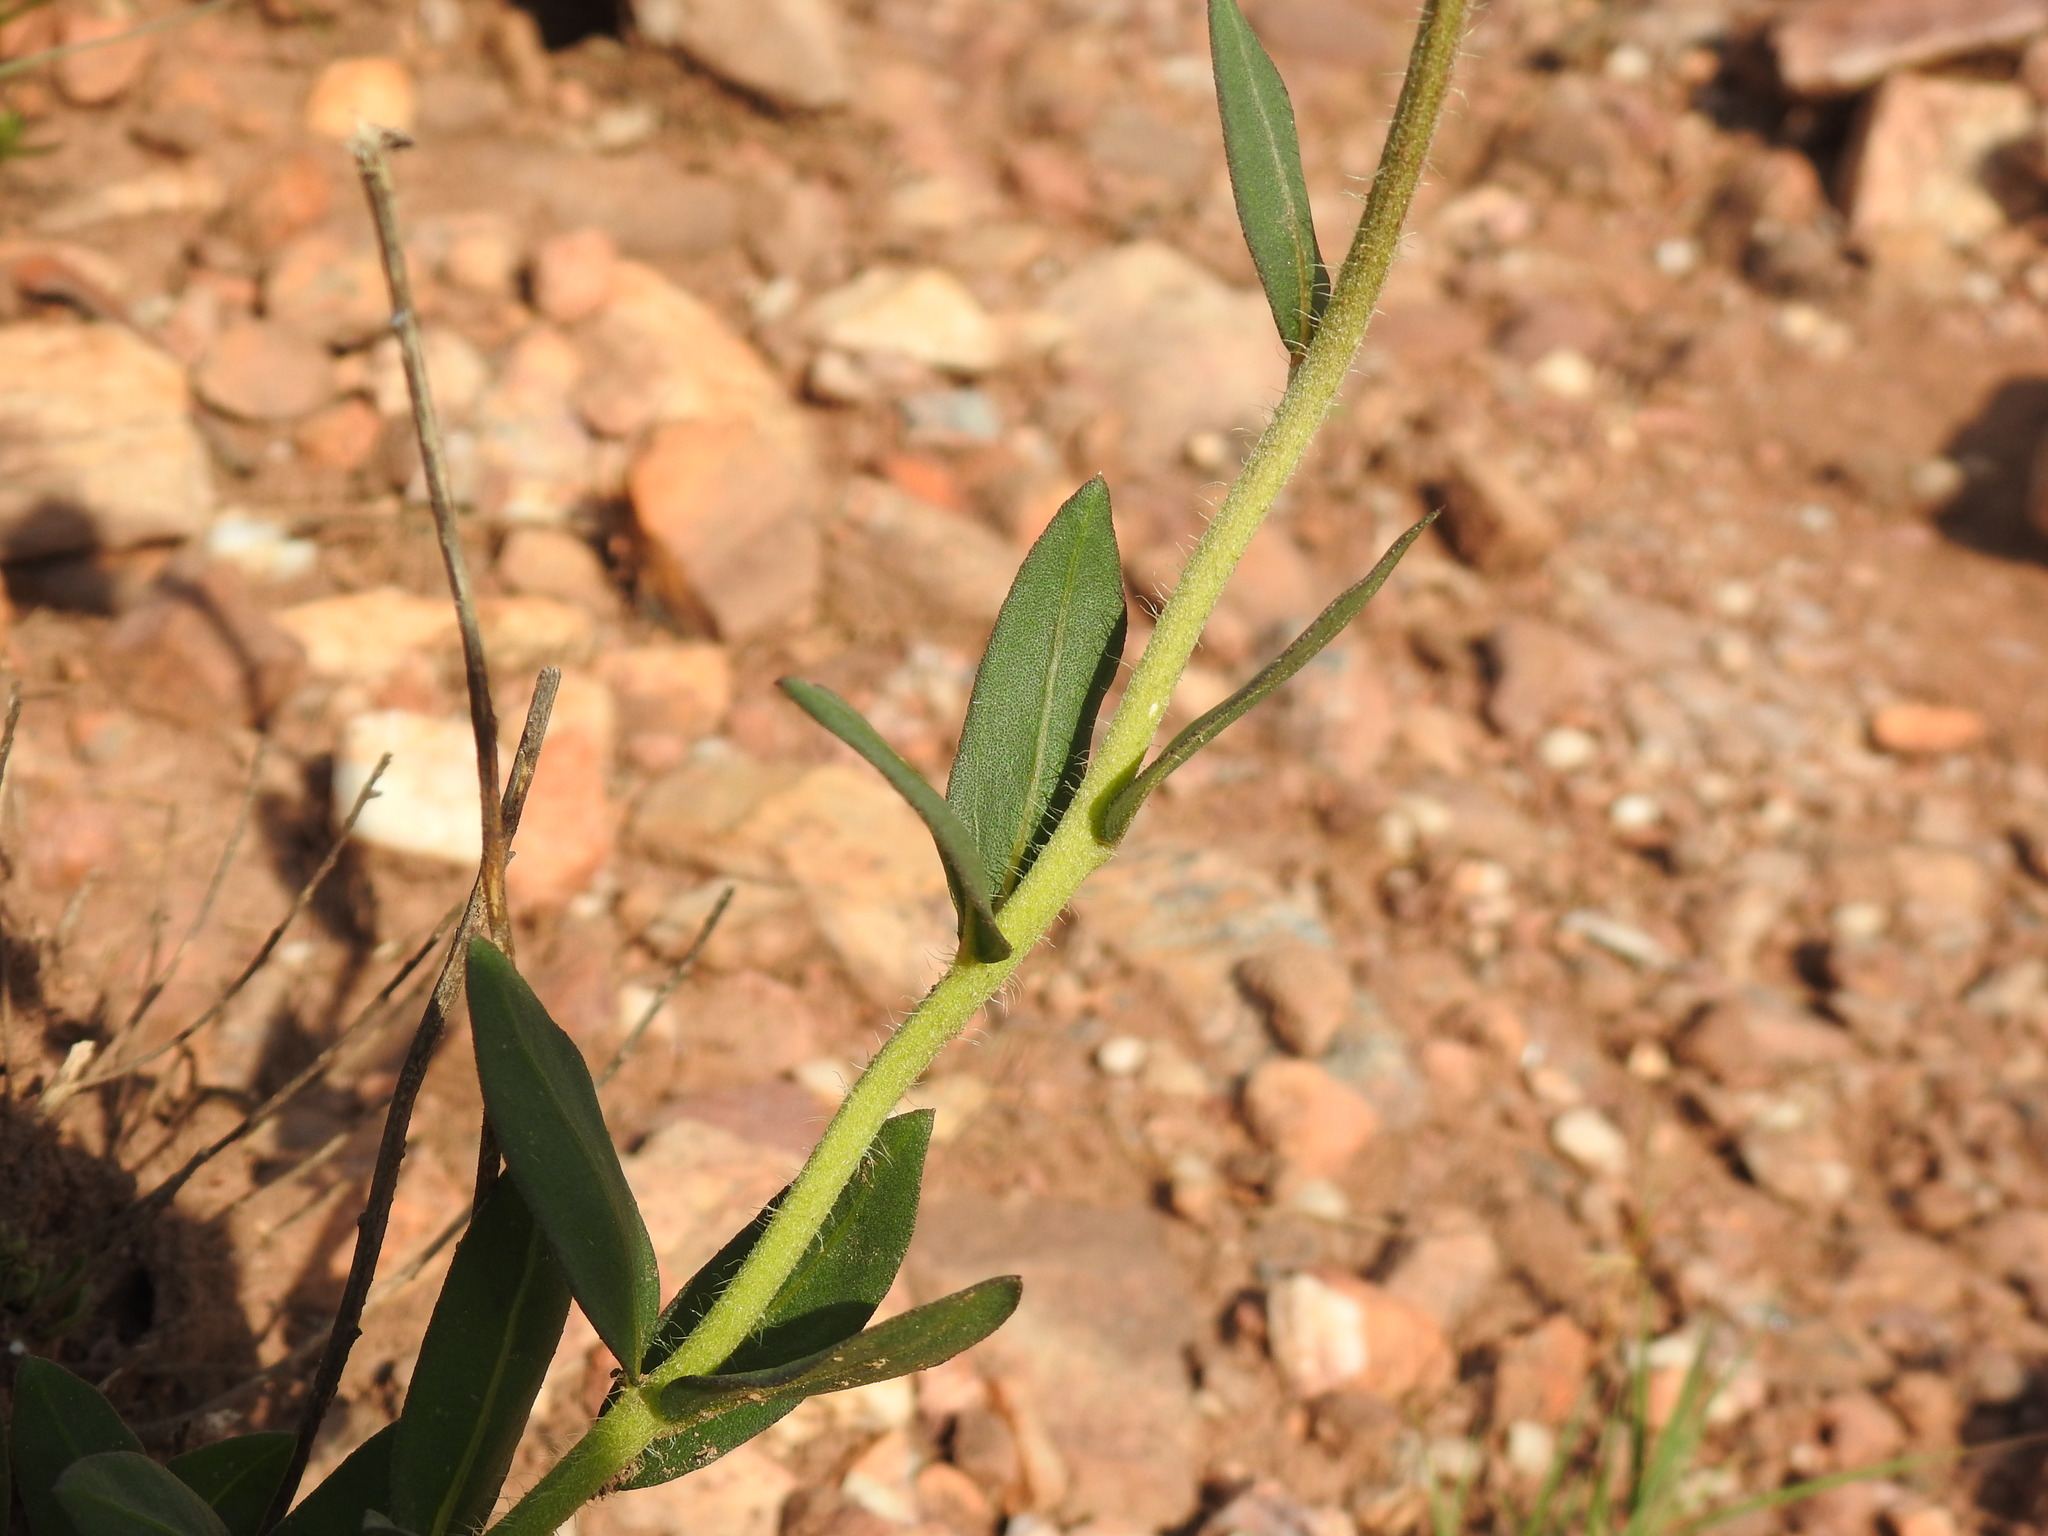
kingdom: Plantae
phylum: Tracheophyta
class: Magnoliopsida
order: Asterales
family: Asteraceae
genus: Pseudopegolettia
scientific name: Pseudopegolettia tenella
